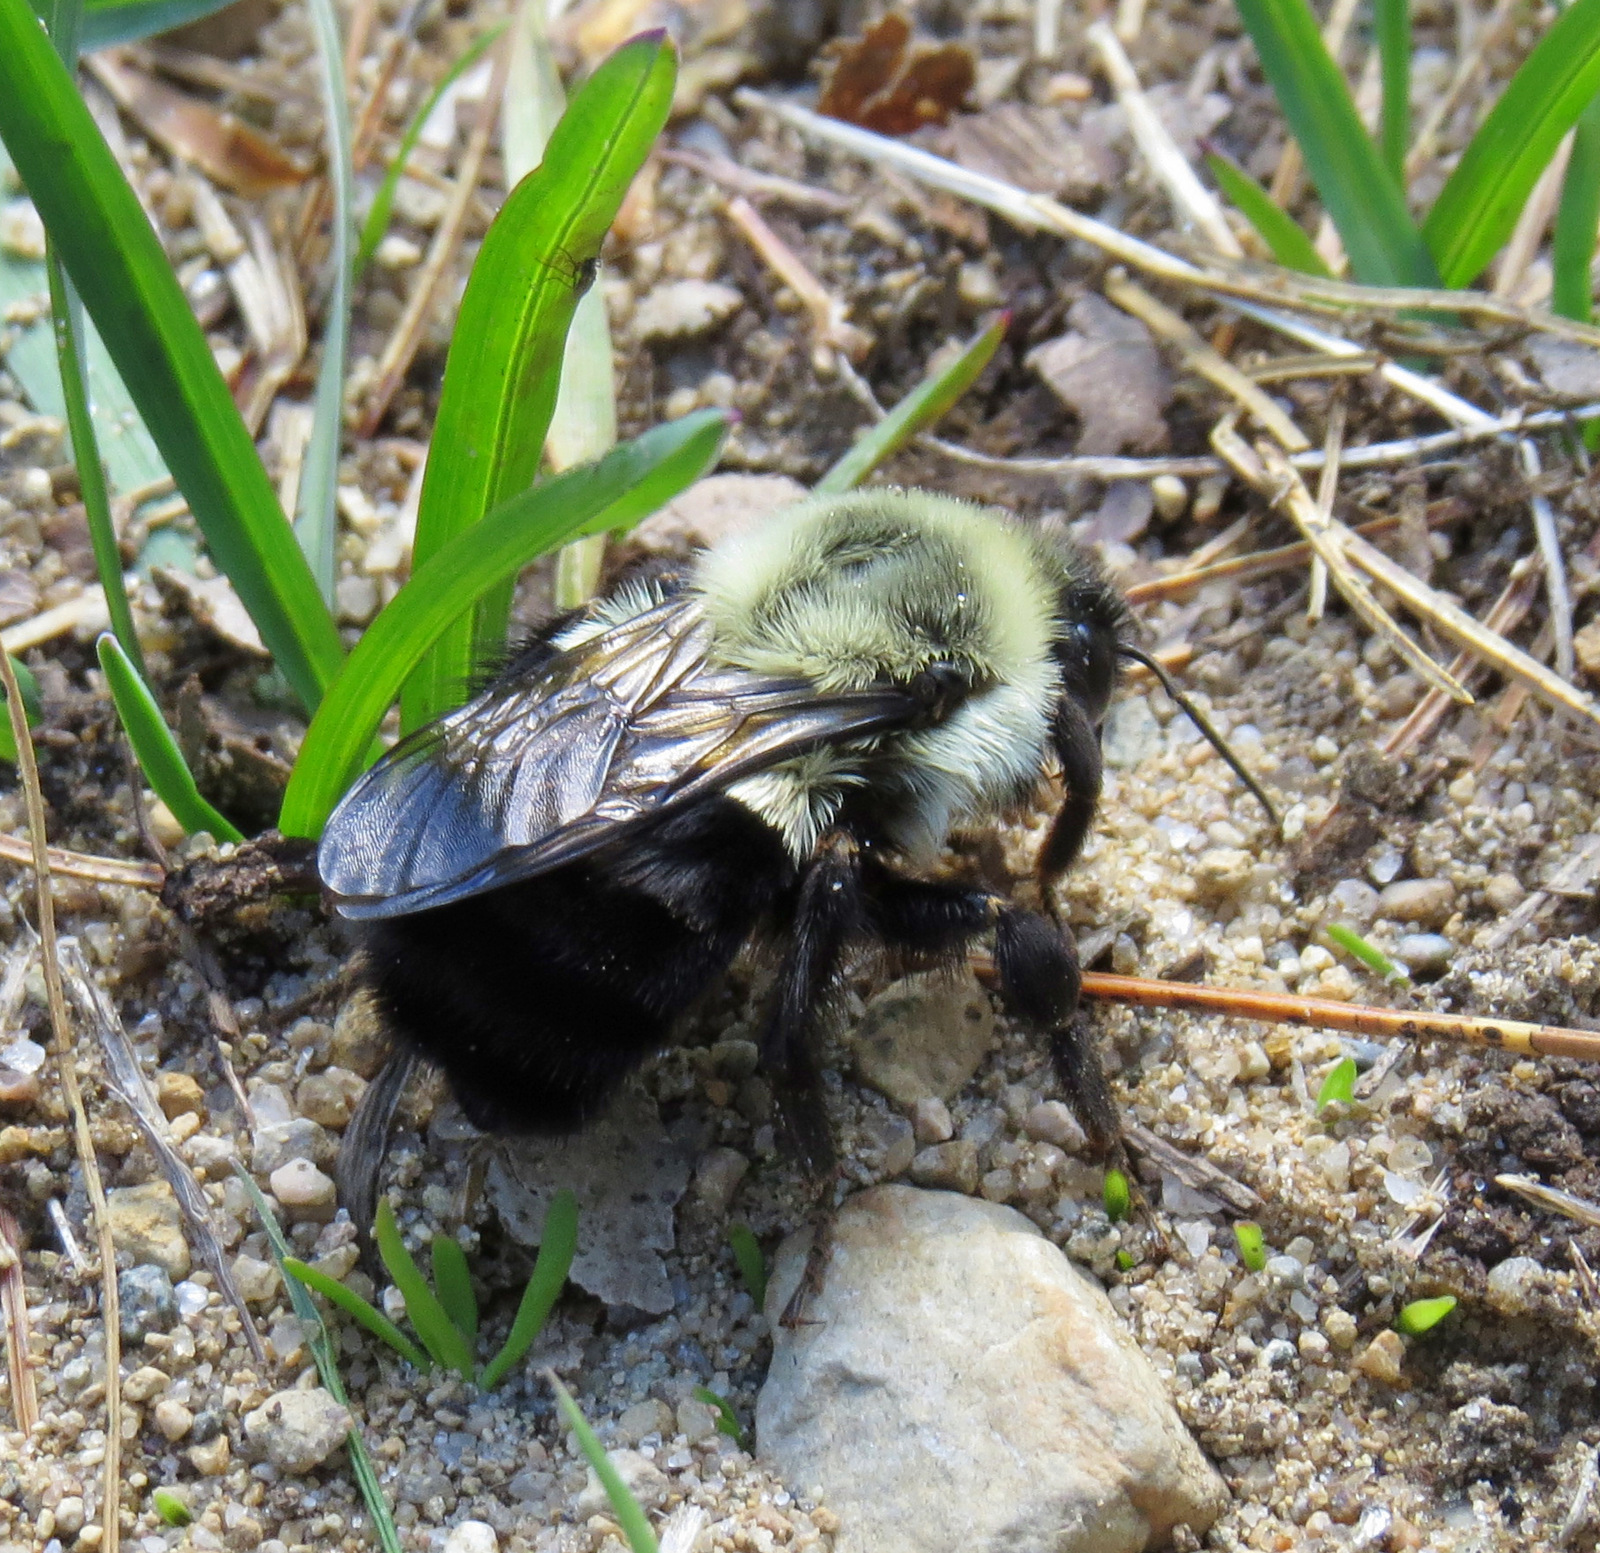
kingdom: Animalia
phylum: Arthropoda
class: Insecta
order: Hymenoptera
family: Apidae
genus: Bombus
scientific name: Bombus impatiens
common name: Common eastern bumble bee
